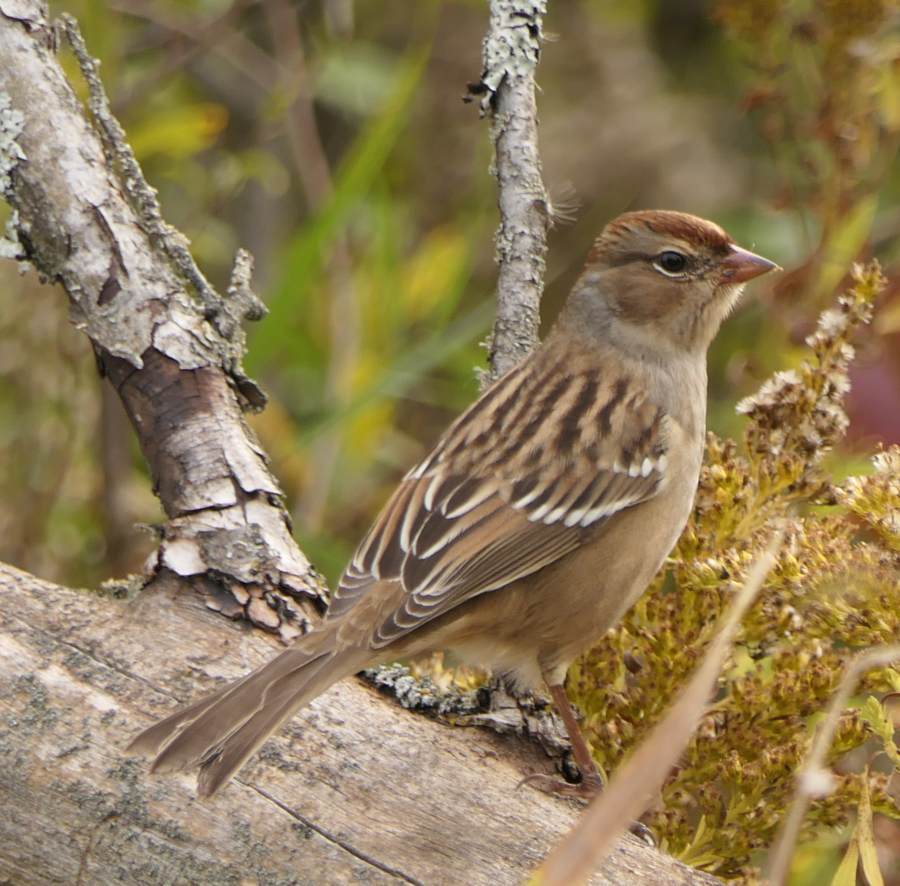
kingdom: Animalia
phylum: Chordata
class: Aves
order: Passeriformes
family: Passerellidae
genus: Zonotrichia
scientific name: Zonotrichia leucophrys
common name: White-crowned sparrow
